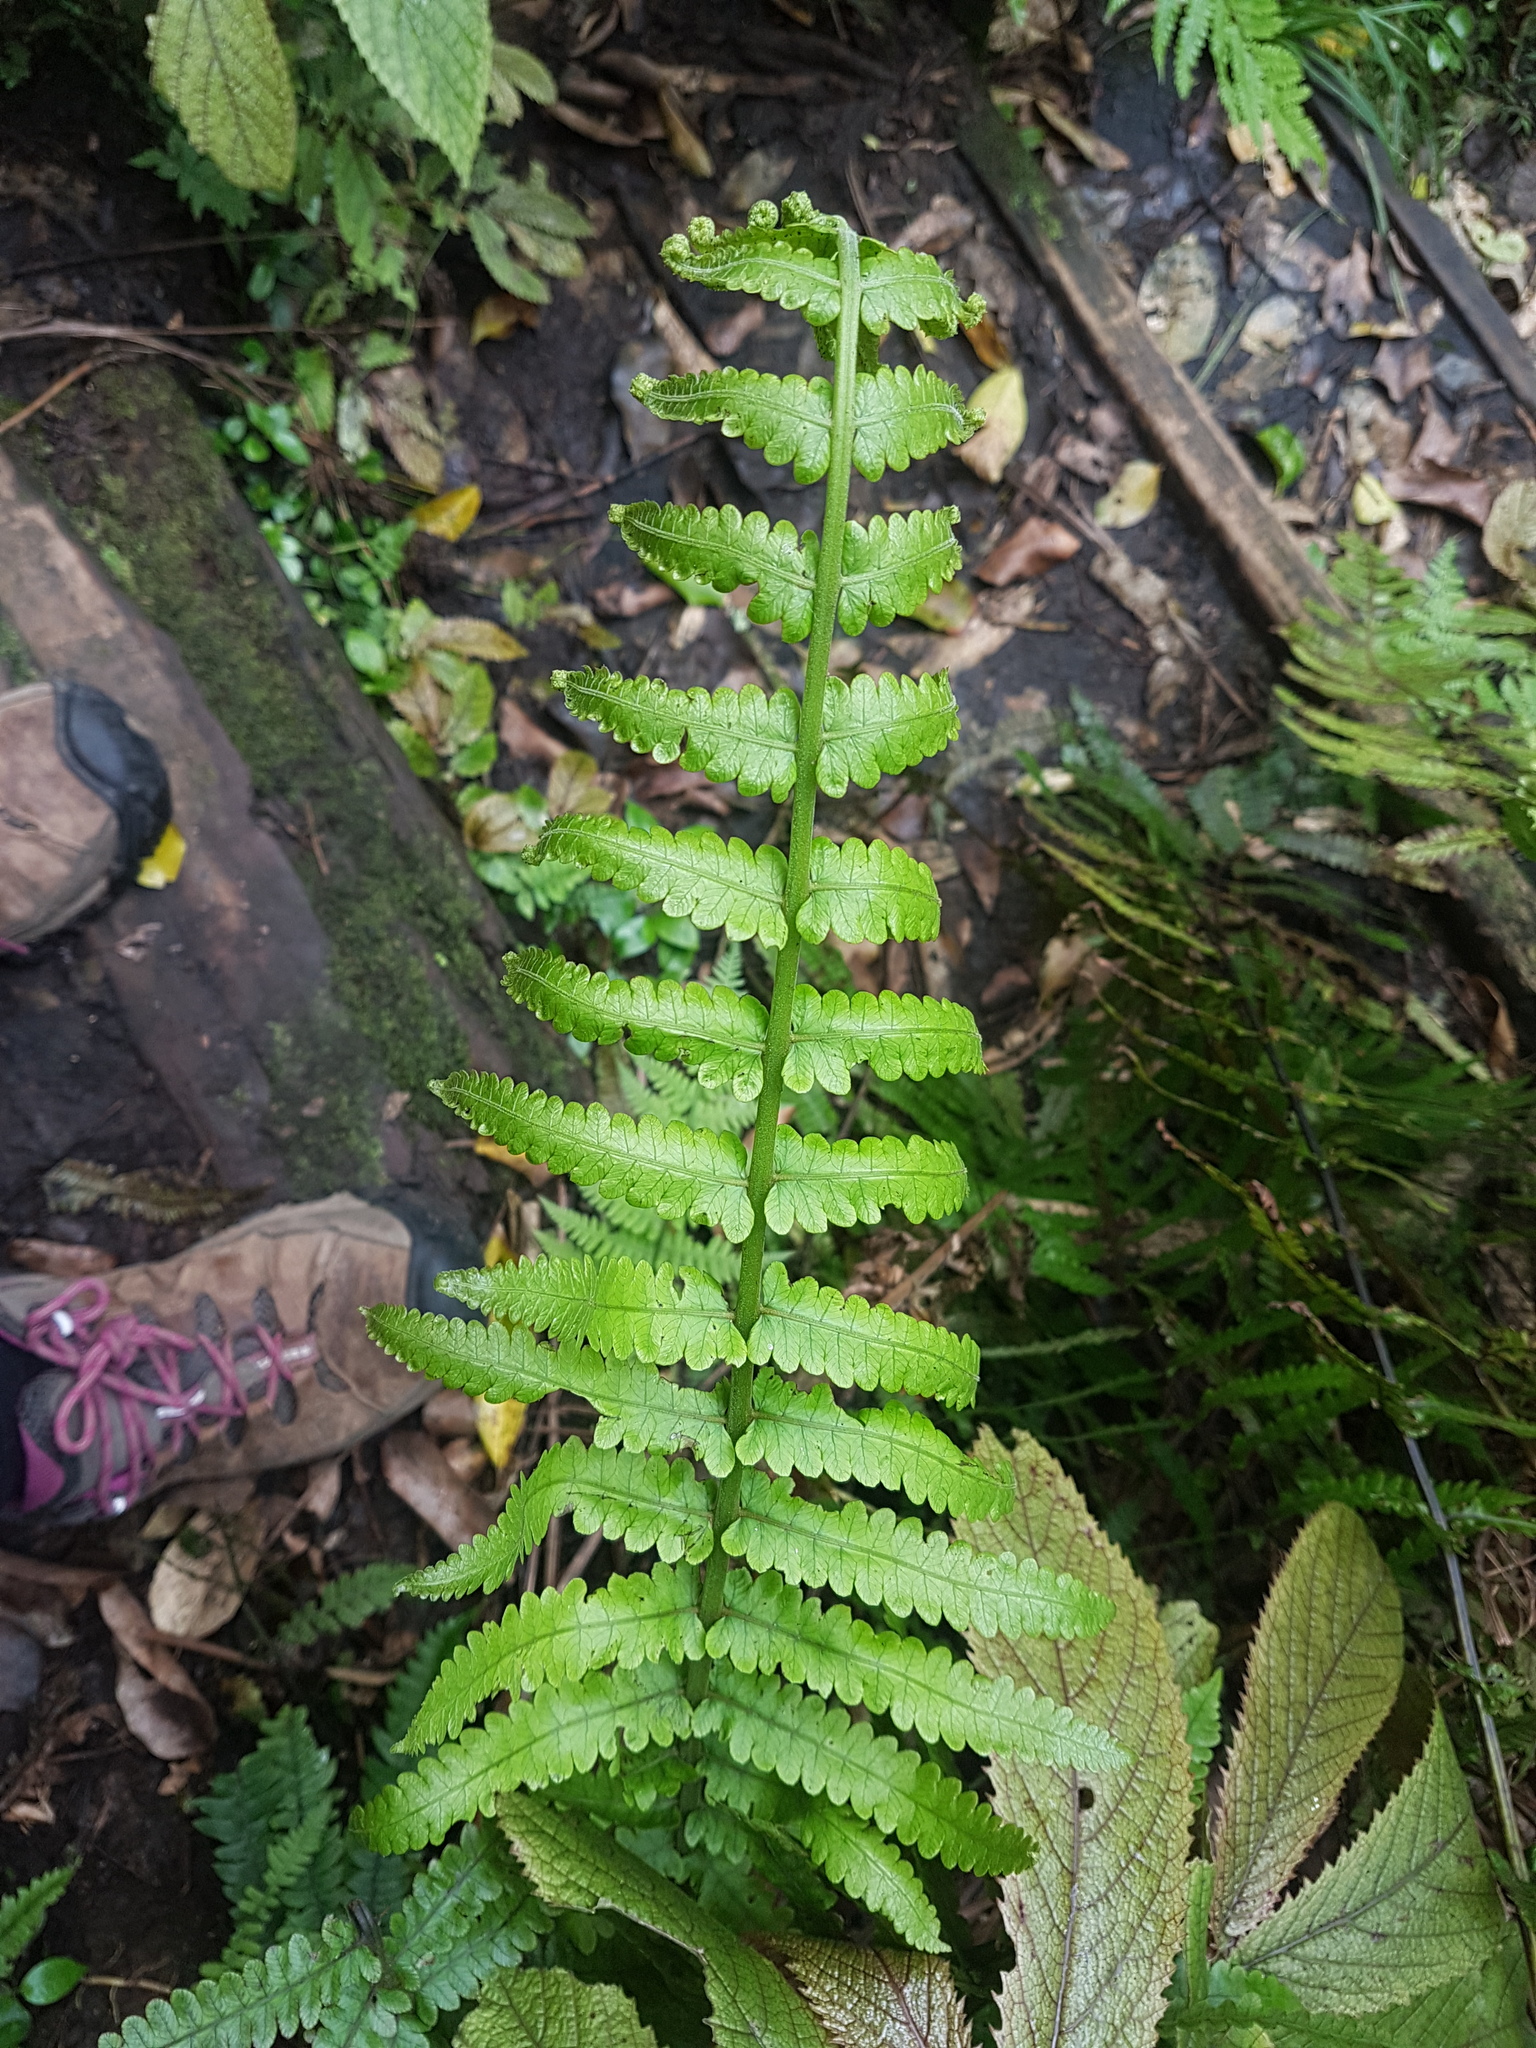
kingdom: Plantae
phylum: Tracheophyta
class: Polypodiopsida
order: Polypodiales
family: Thelypteridaceae
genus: Pakau
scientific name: Pakau pennigera
